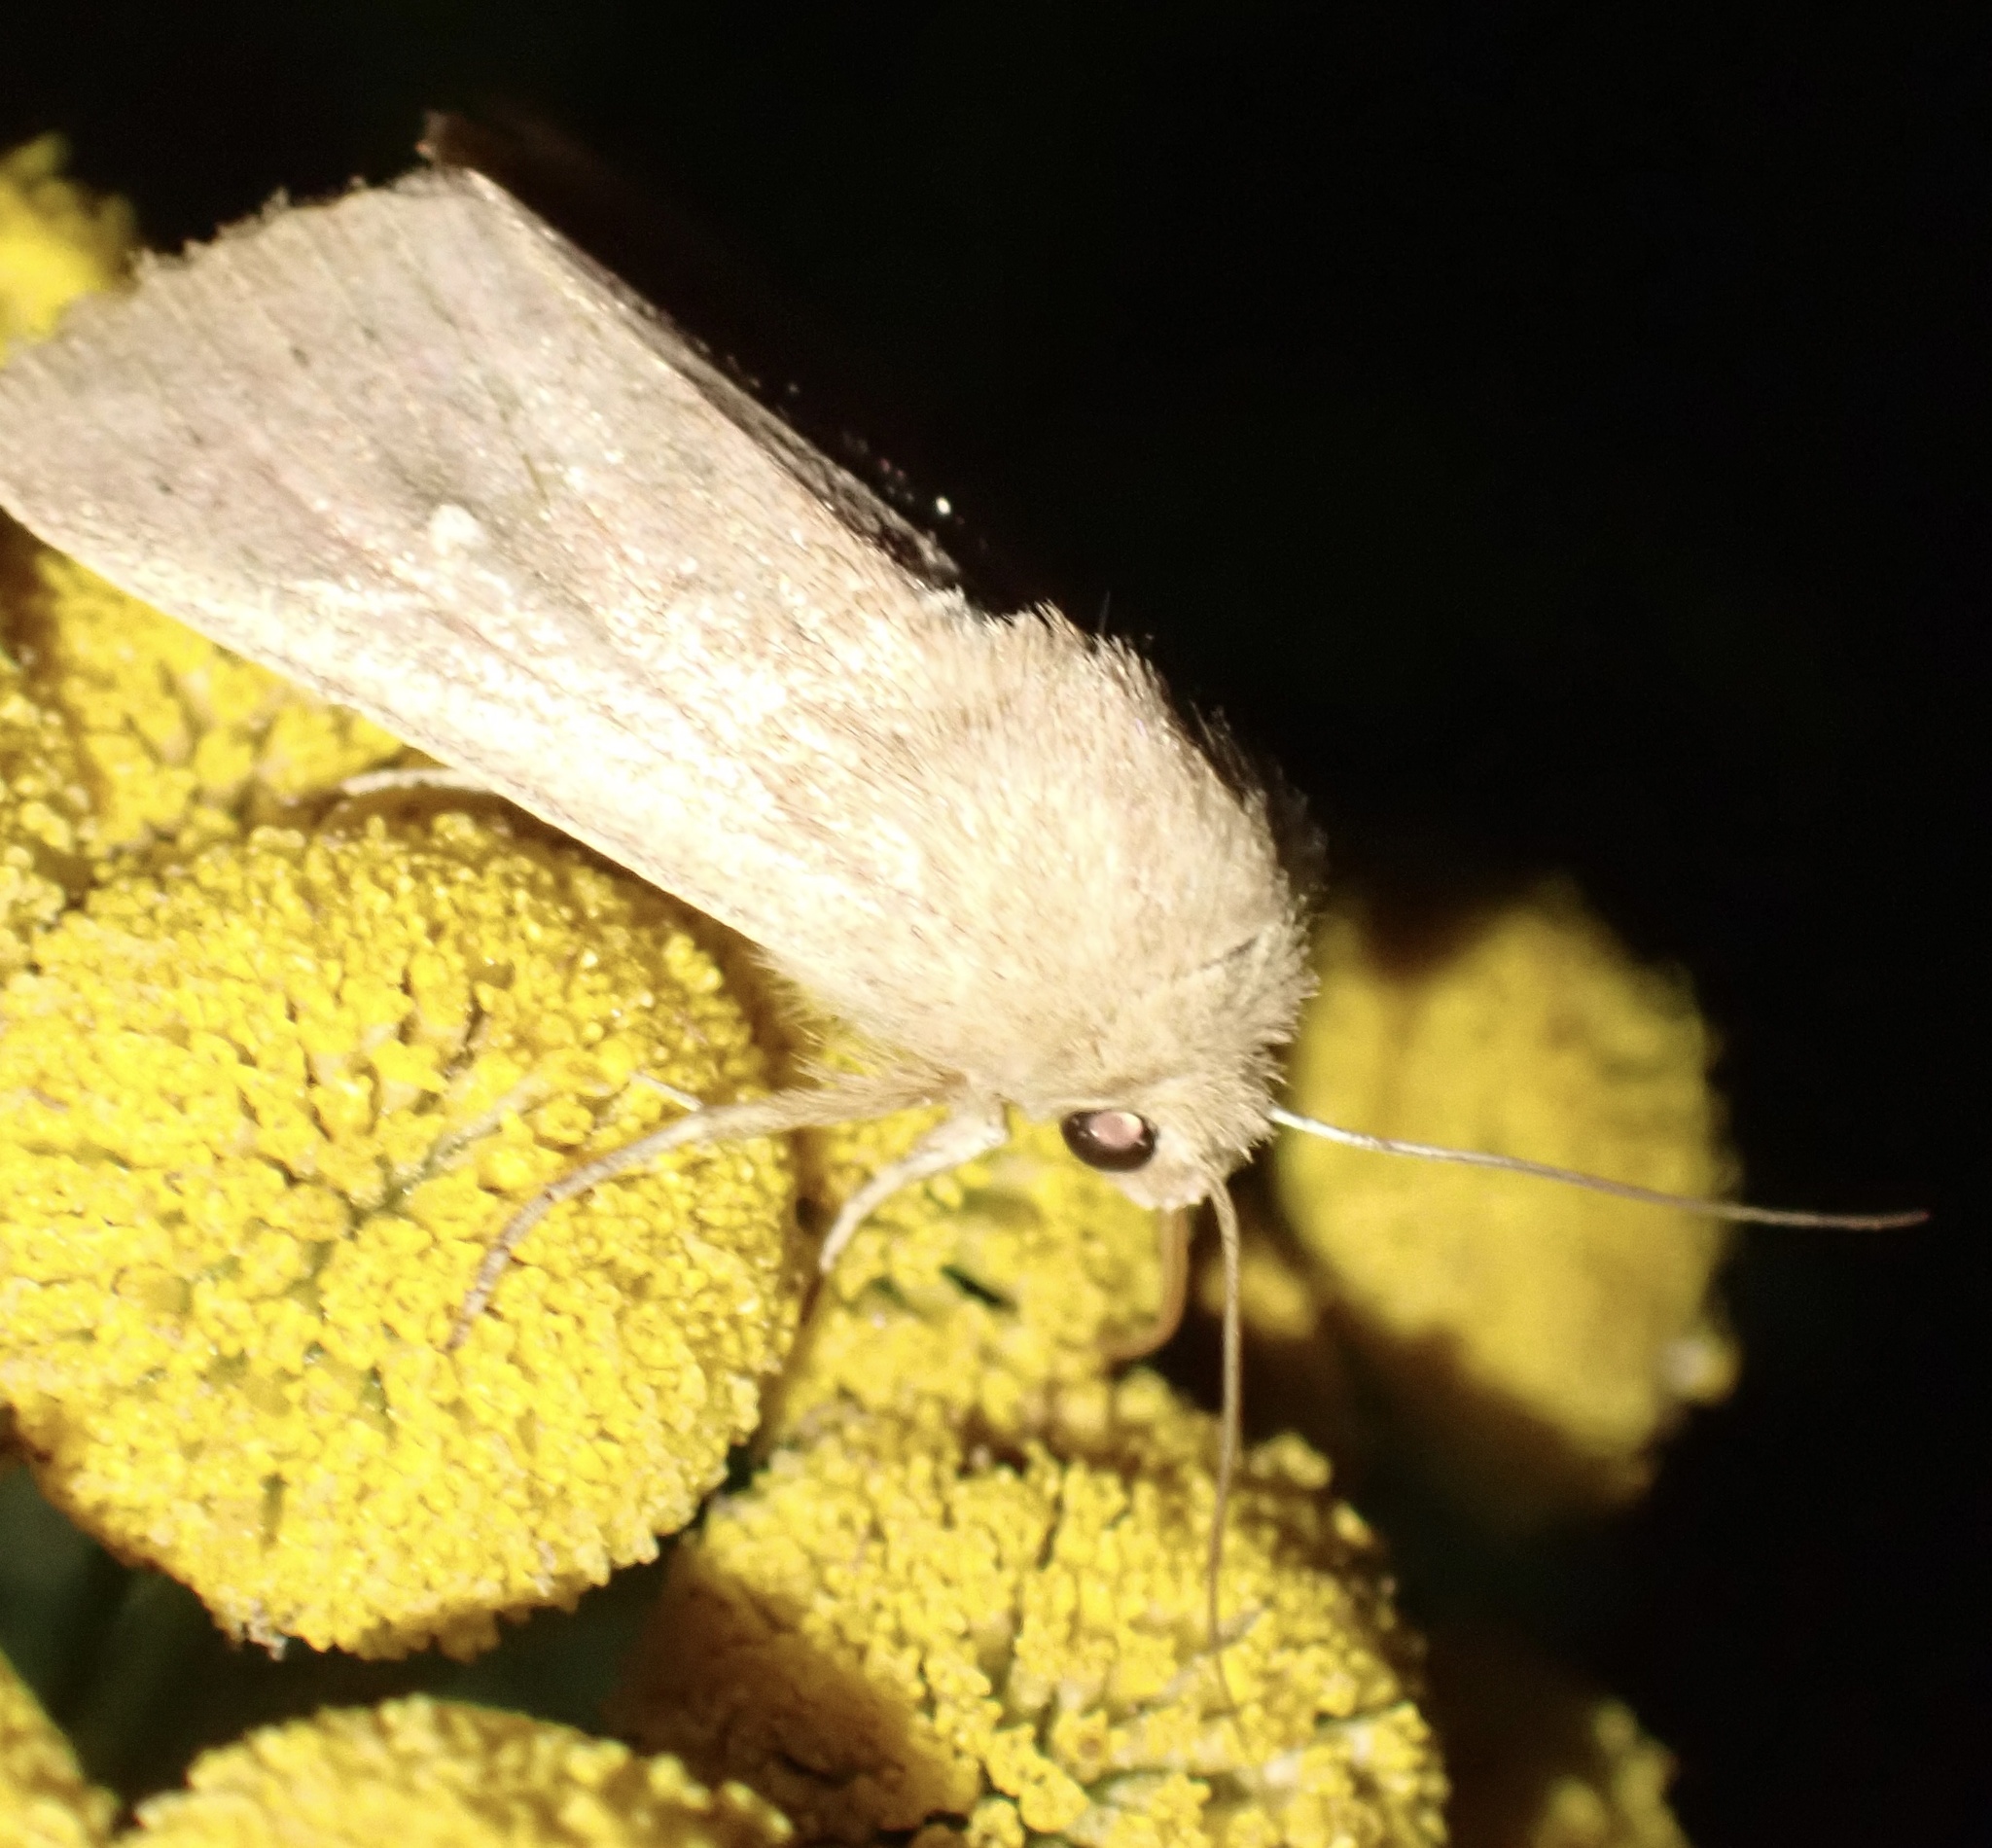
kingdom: Animalia
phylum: Arthropoda
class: Insecta
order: Lepidoptera
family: Noctuidae
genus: Mythimna
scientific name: Mythimna ferrago
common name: Clay
